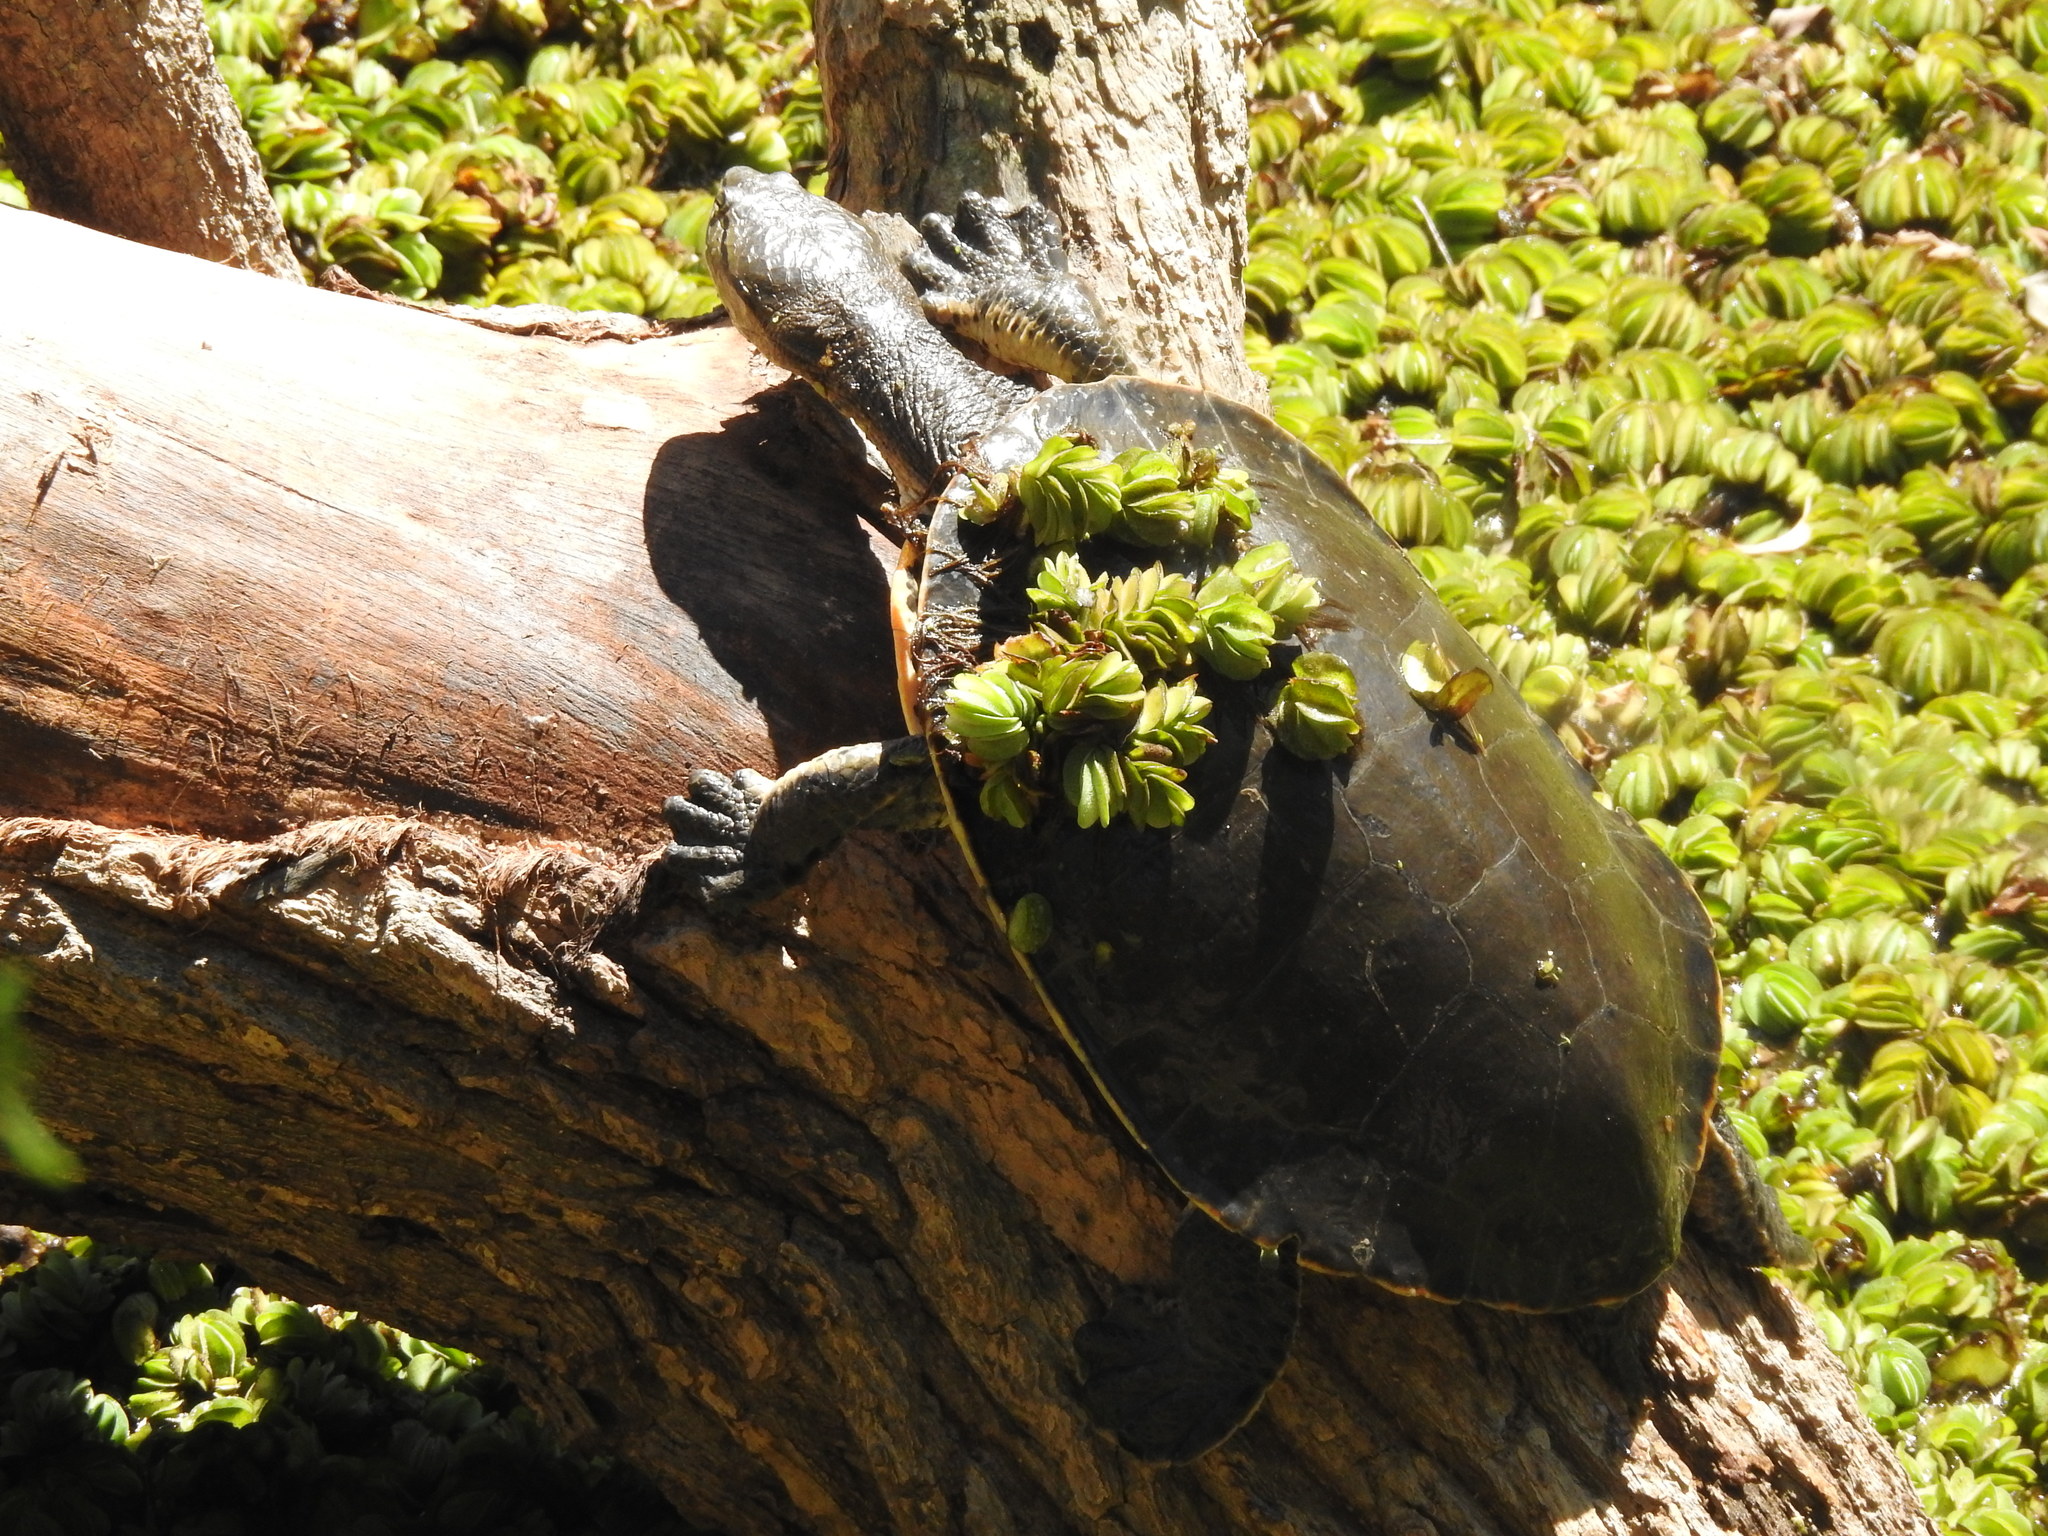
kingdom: Animalia
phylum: Chordata
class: Testudines
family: Chelidae
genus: Phrynops
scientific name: Phrynops hilarii
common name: Side-necked turtle of saint hillaire
